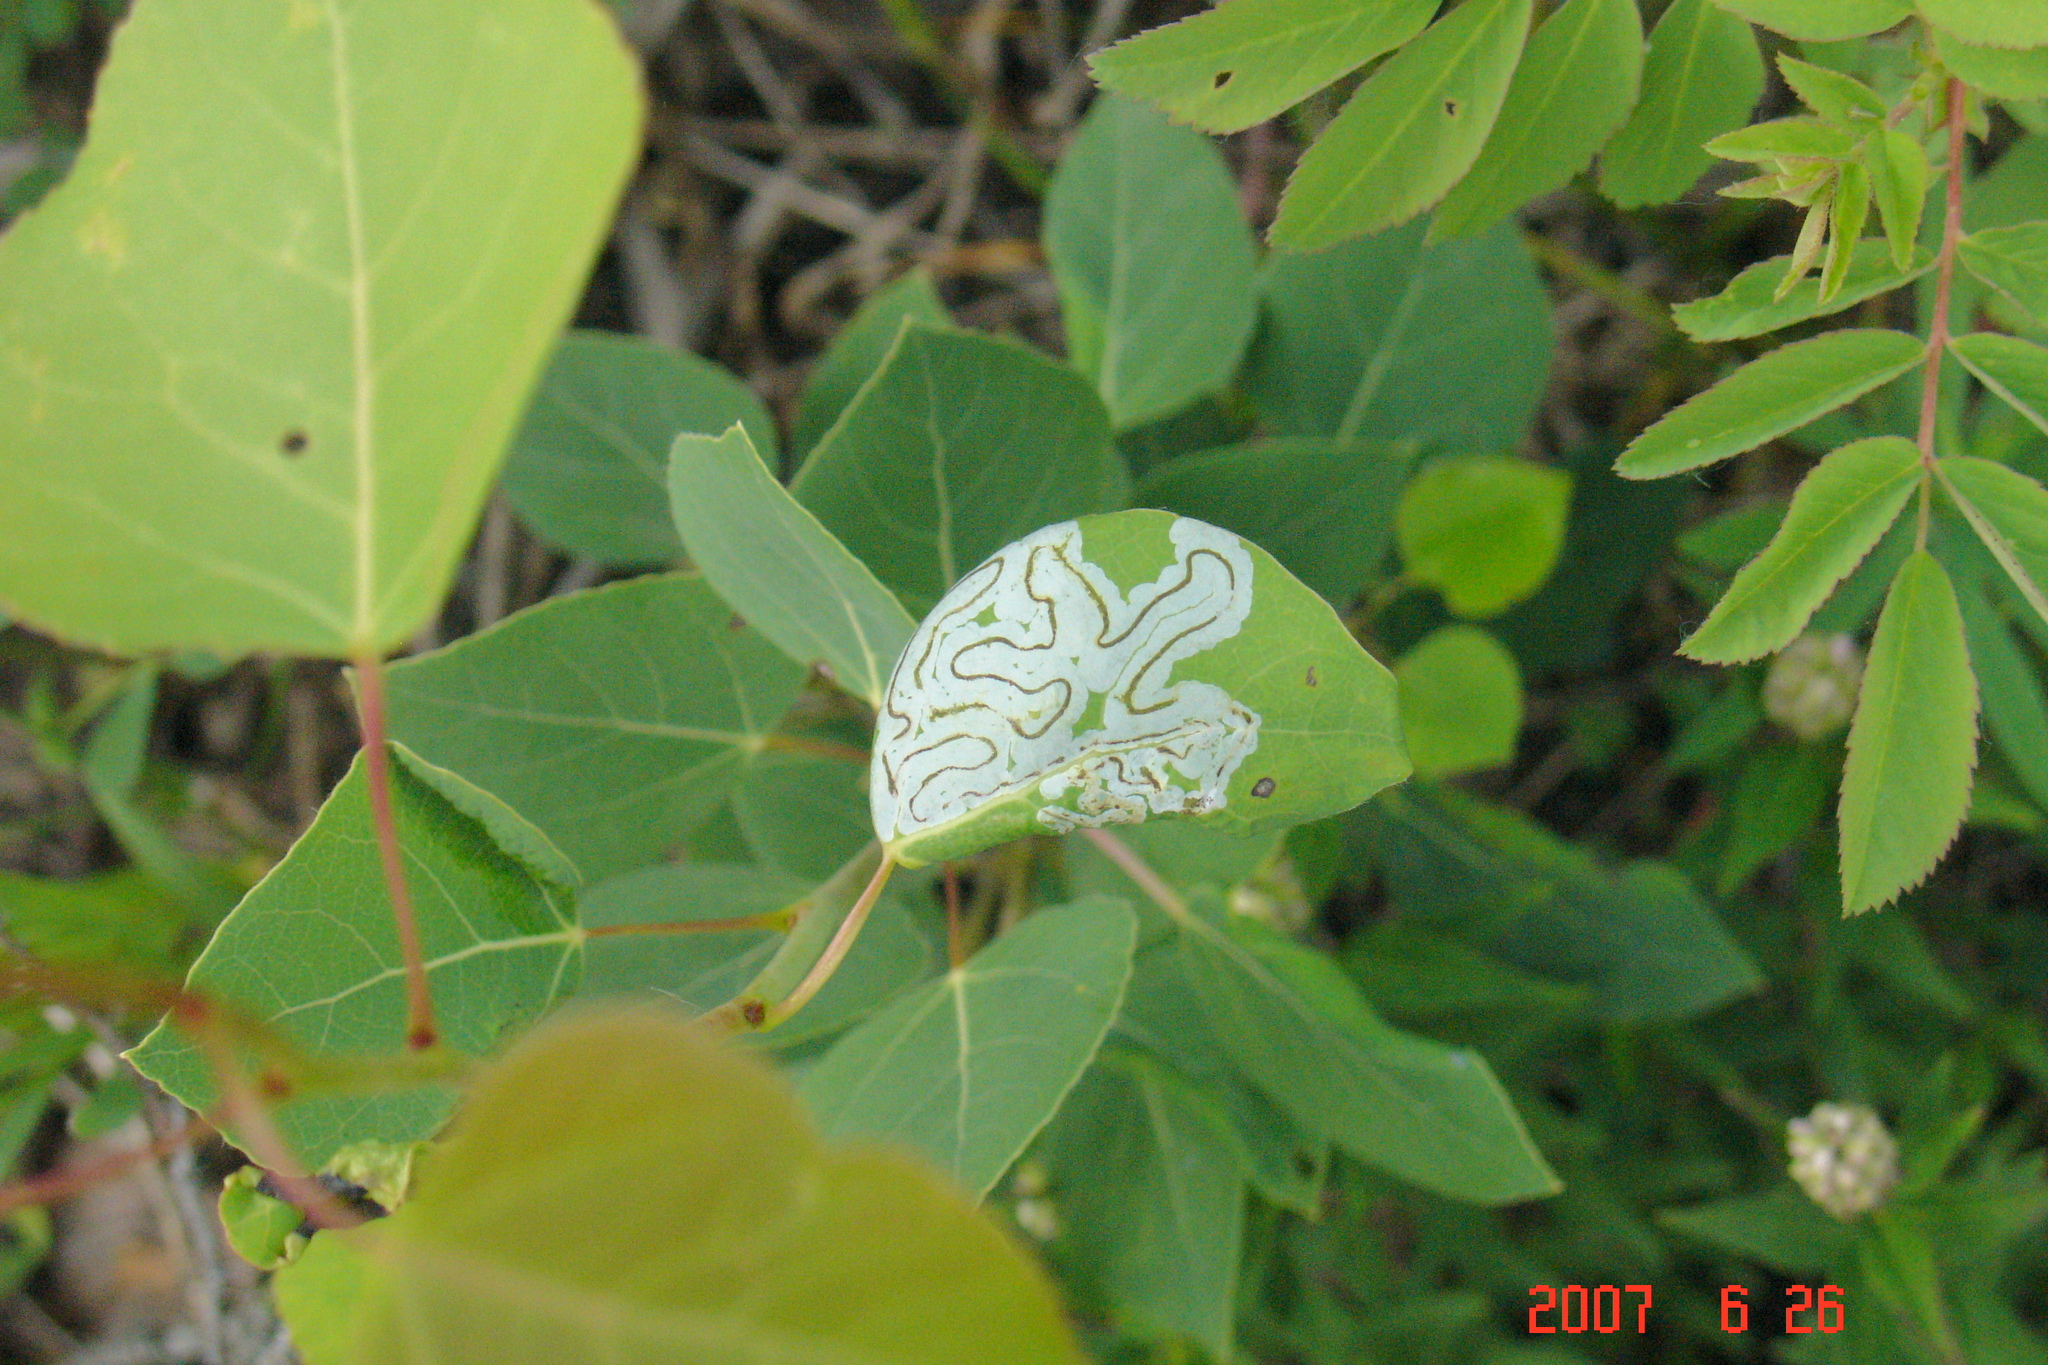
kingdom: Animalia
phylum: Arthropoda
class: Insecta
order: Lepidoptera
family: Gracillariidae
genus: Phyllocnistis
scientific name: Phyllocnistis populiella
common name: Aspen serpentine leafminer moth
